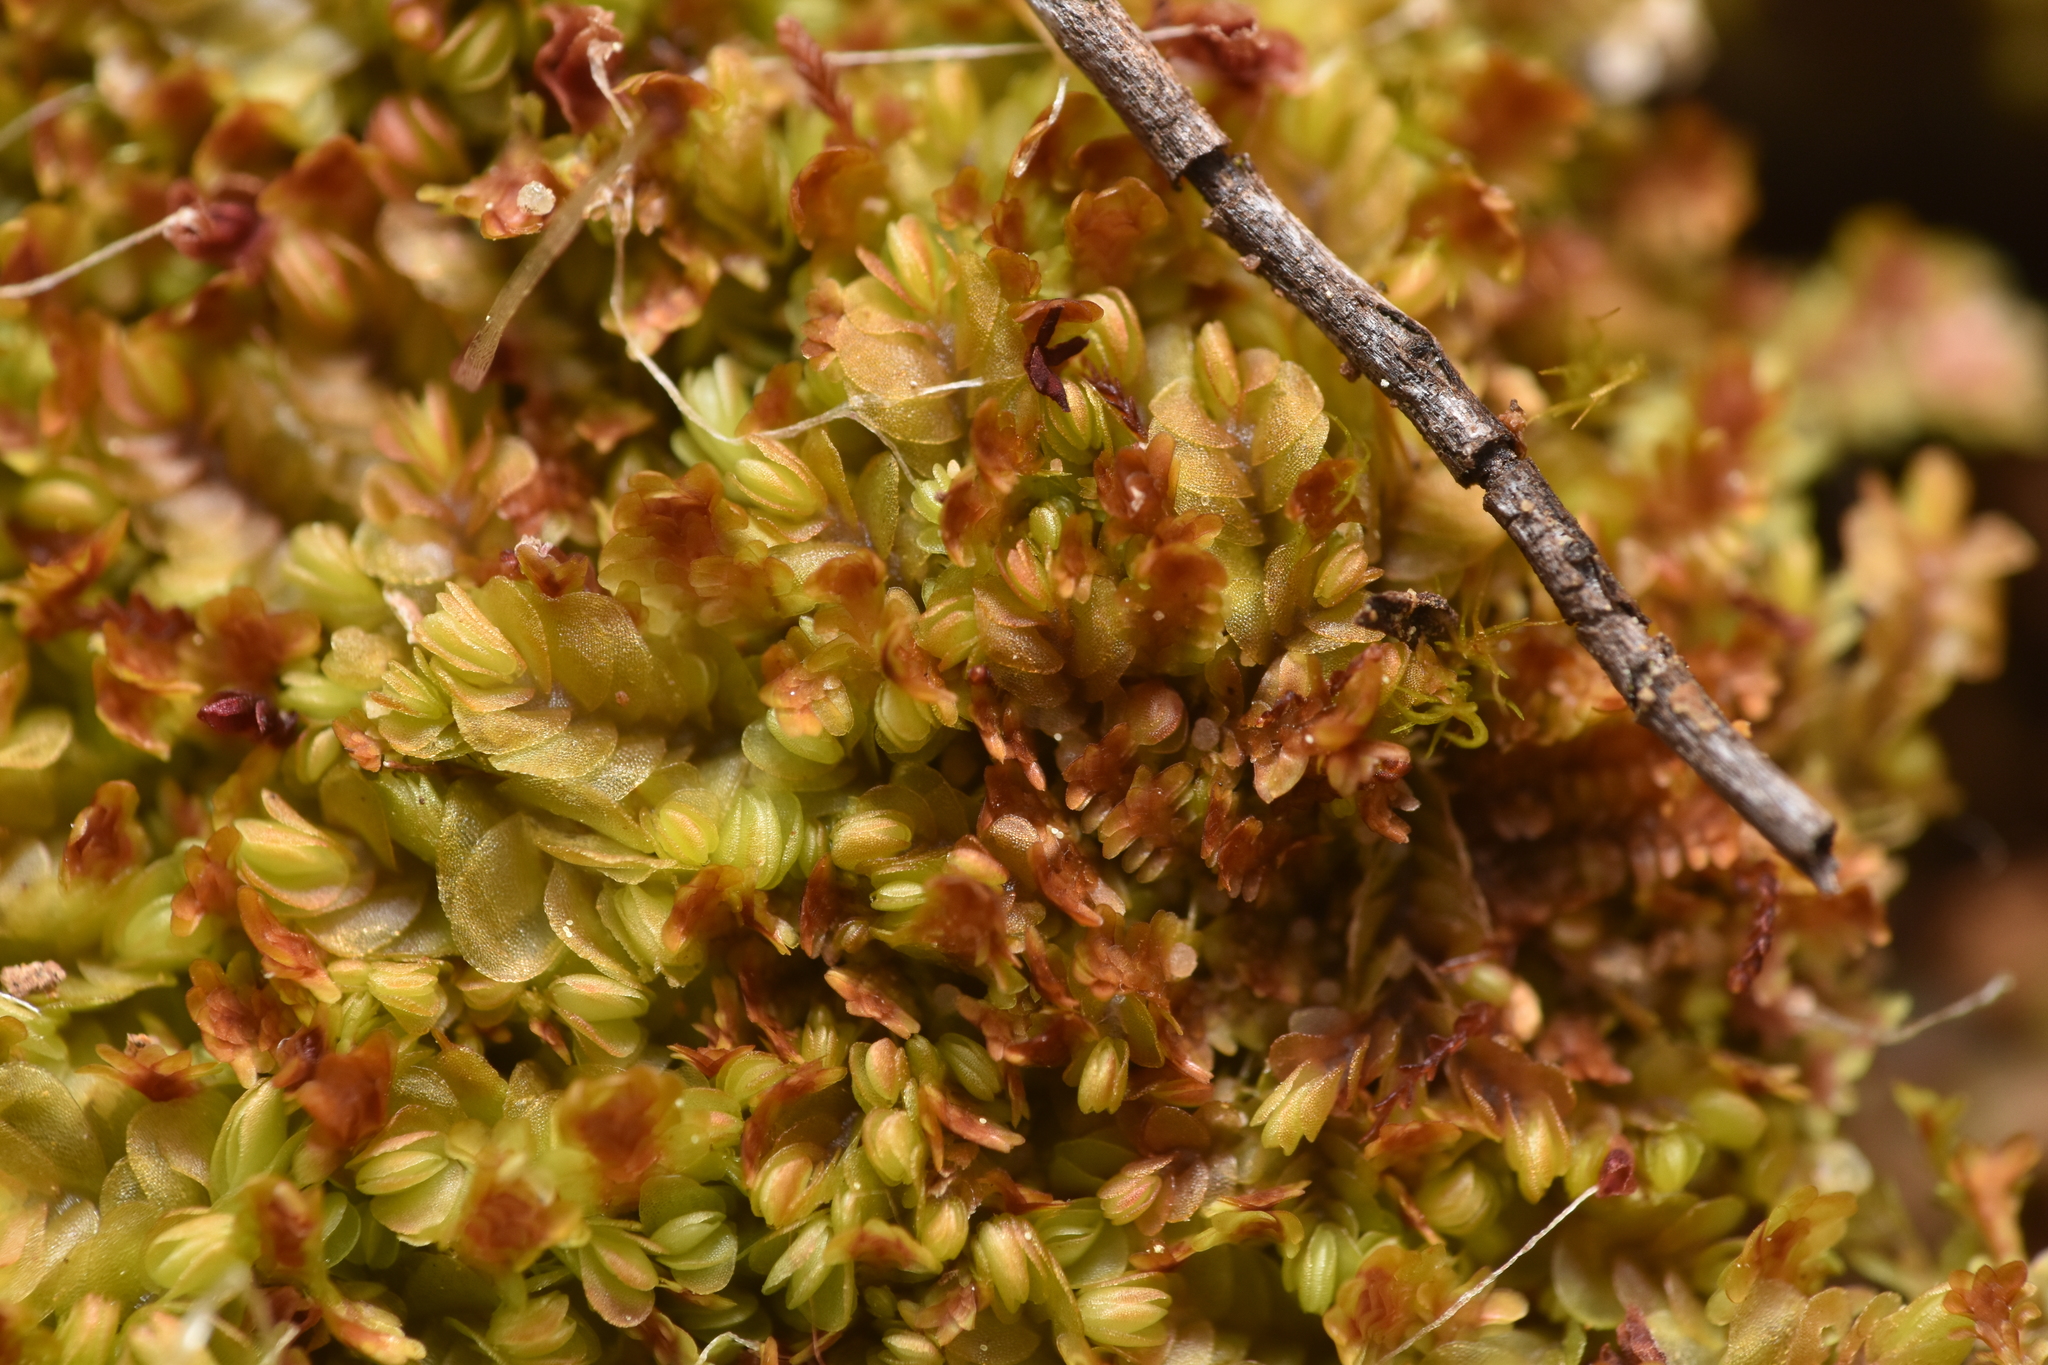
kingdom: Plantae
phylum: Marchantiophyta
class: Jungermanniopsida
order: Jungermanniales
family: Solenostomataceae
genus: Solenostoma
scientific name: Solenostoma rubrum
